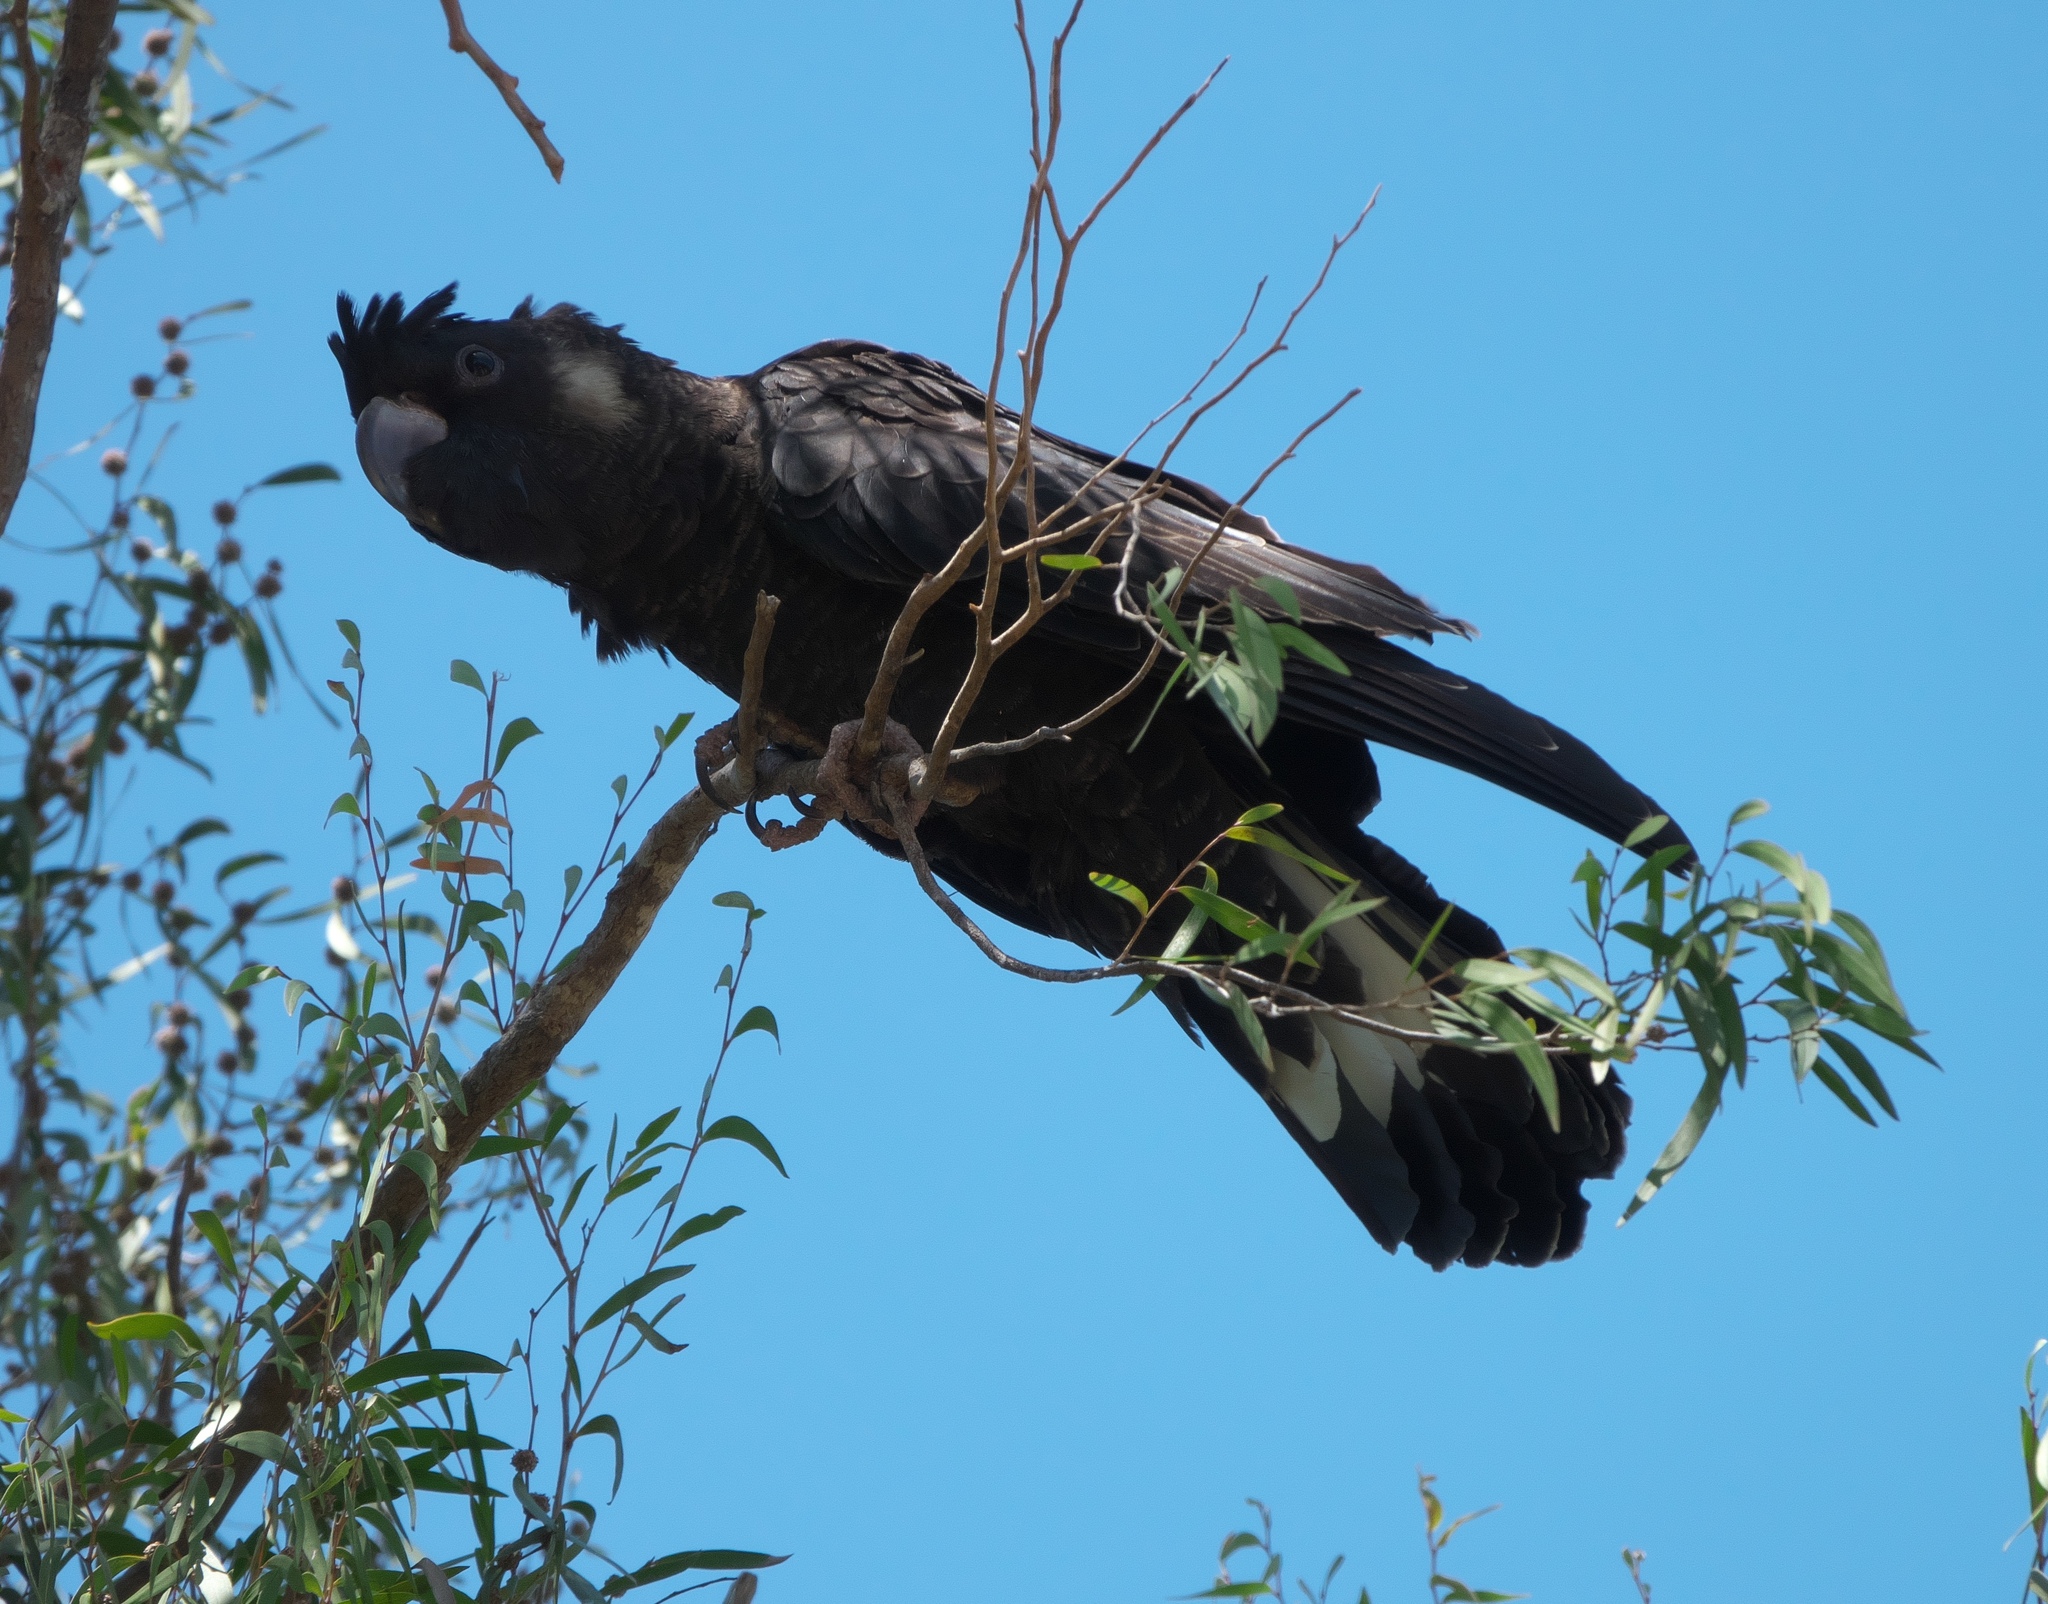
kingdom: Animalia
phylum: Chordata
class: Aves
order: Psittaciformes
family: Cacatuidae
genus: Zanda
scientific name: Zanda latirostris
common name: Short-billed black-cockatoo
